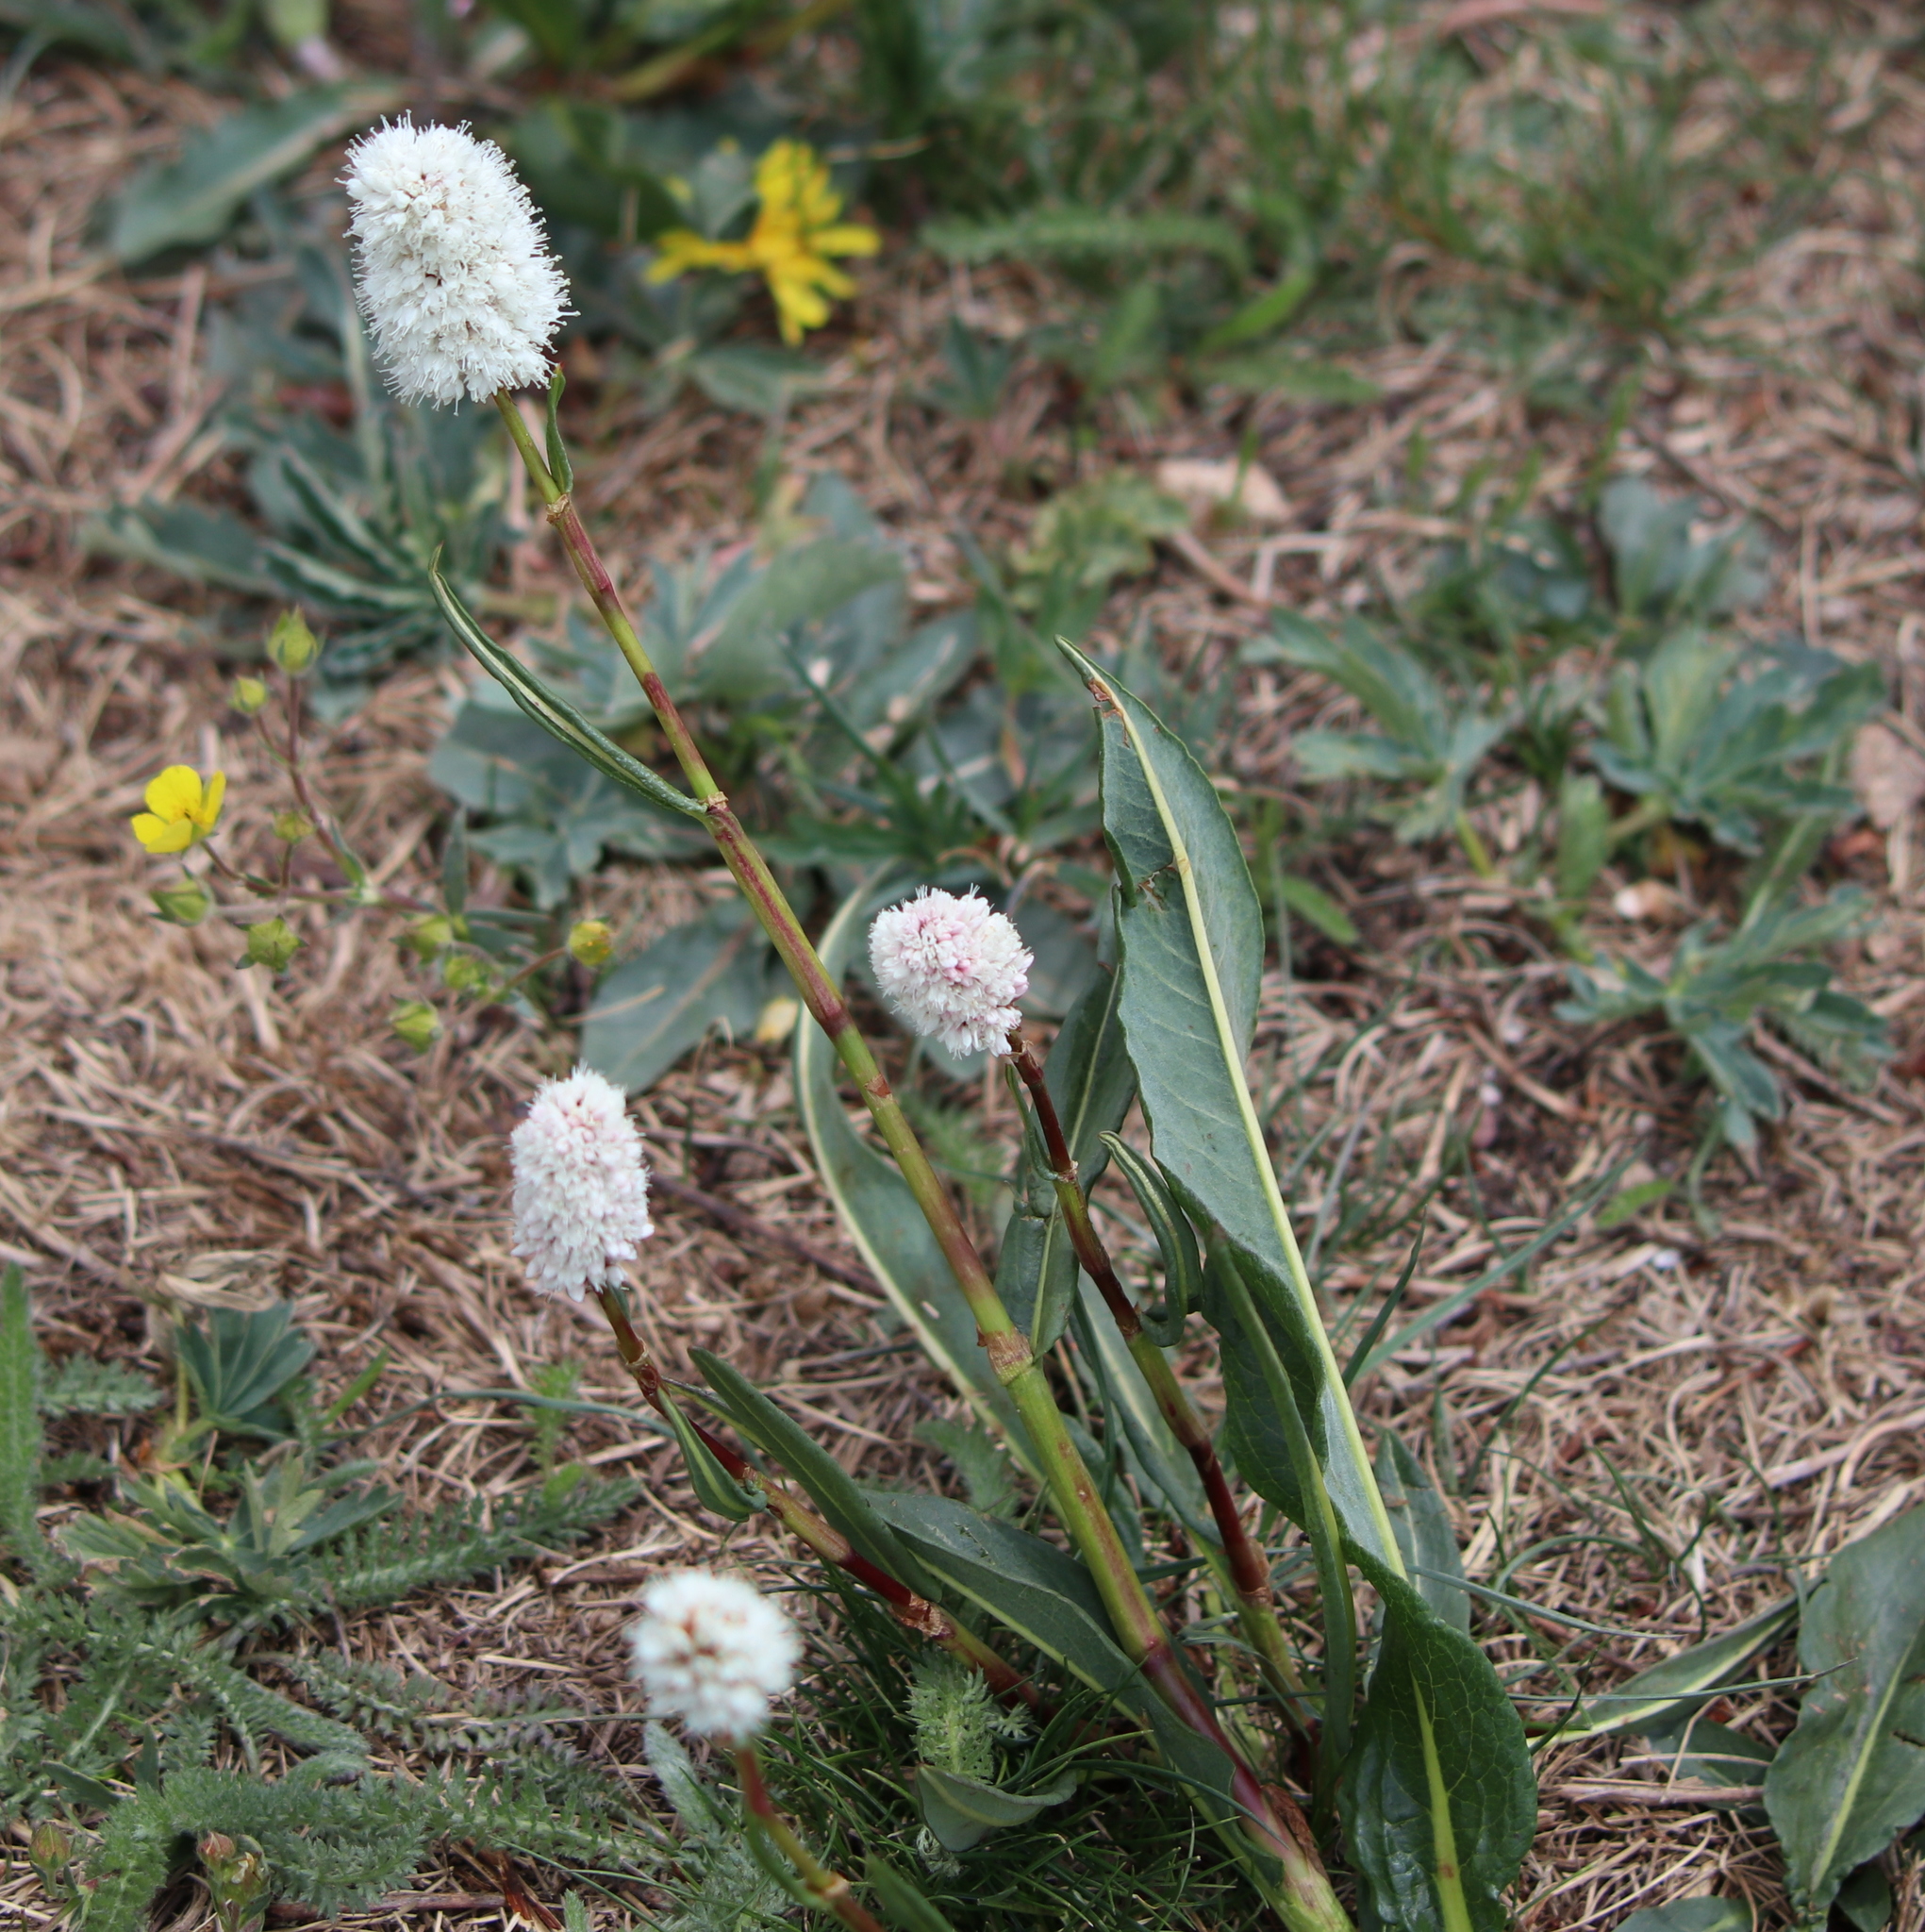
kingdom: Plantae
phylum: Tracheophyta
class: Magnoliopsida
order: Caryophyllales
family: Polygonaceae
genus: Bistorta
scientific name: Bistorta bistortoides
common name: American bistort
